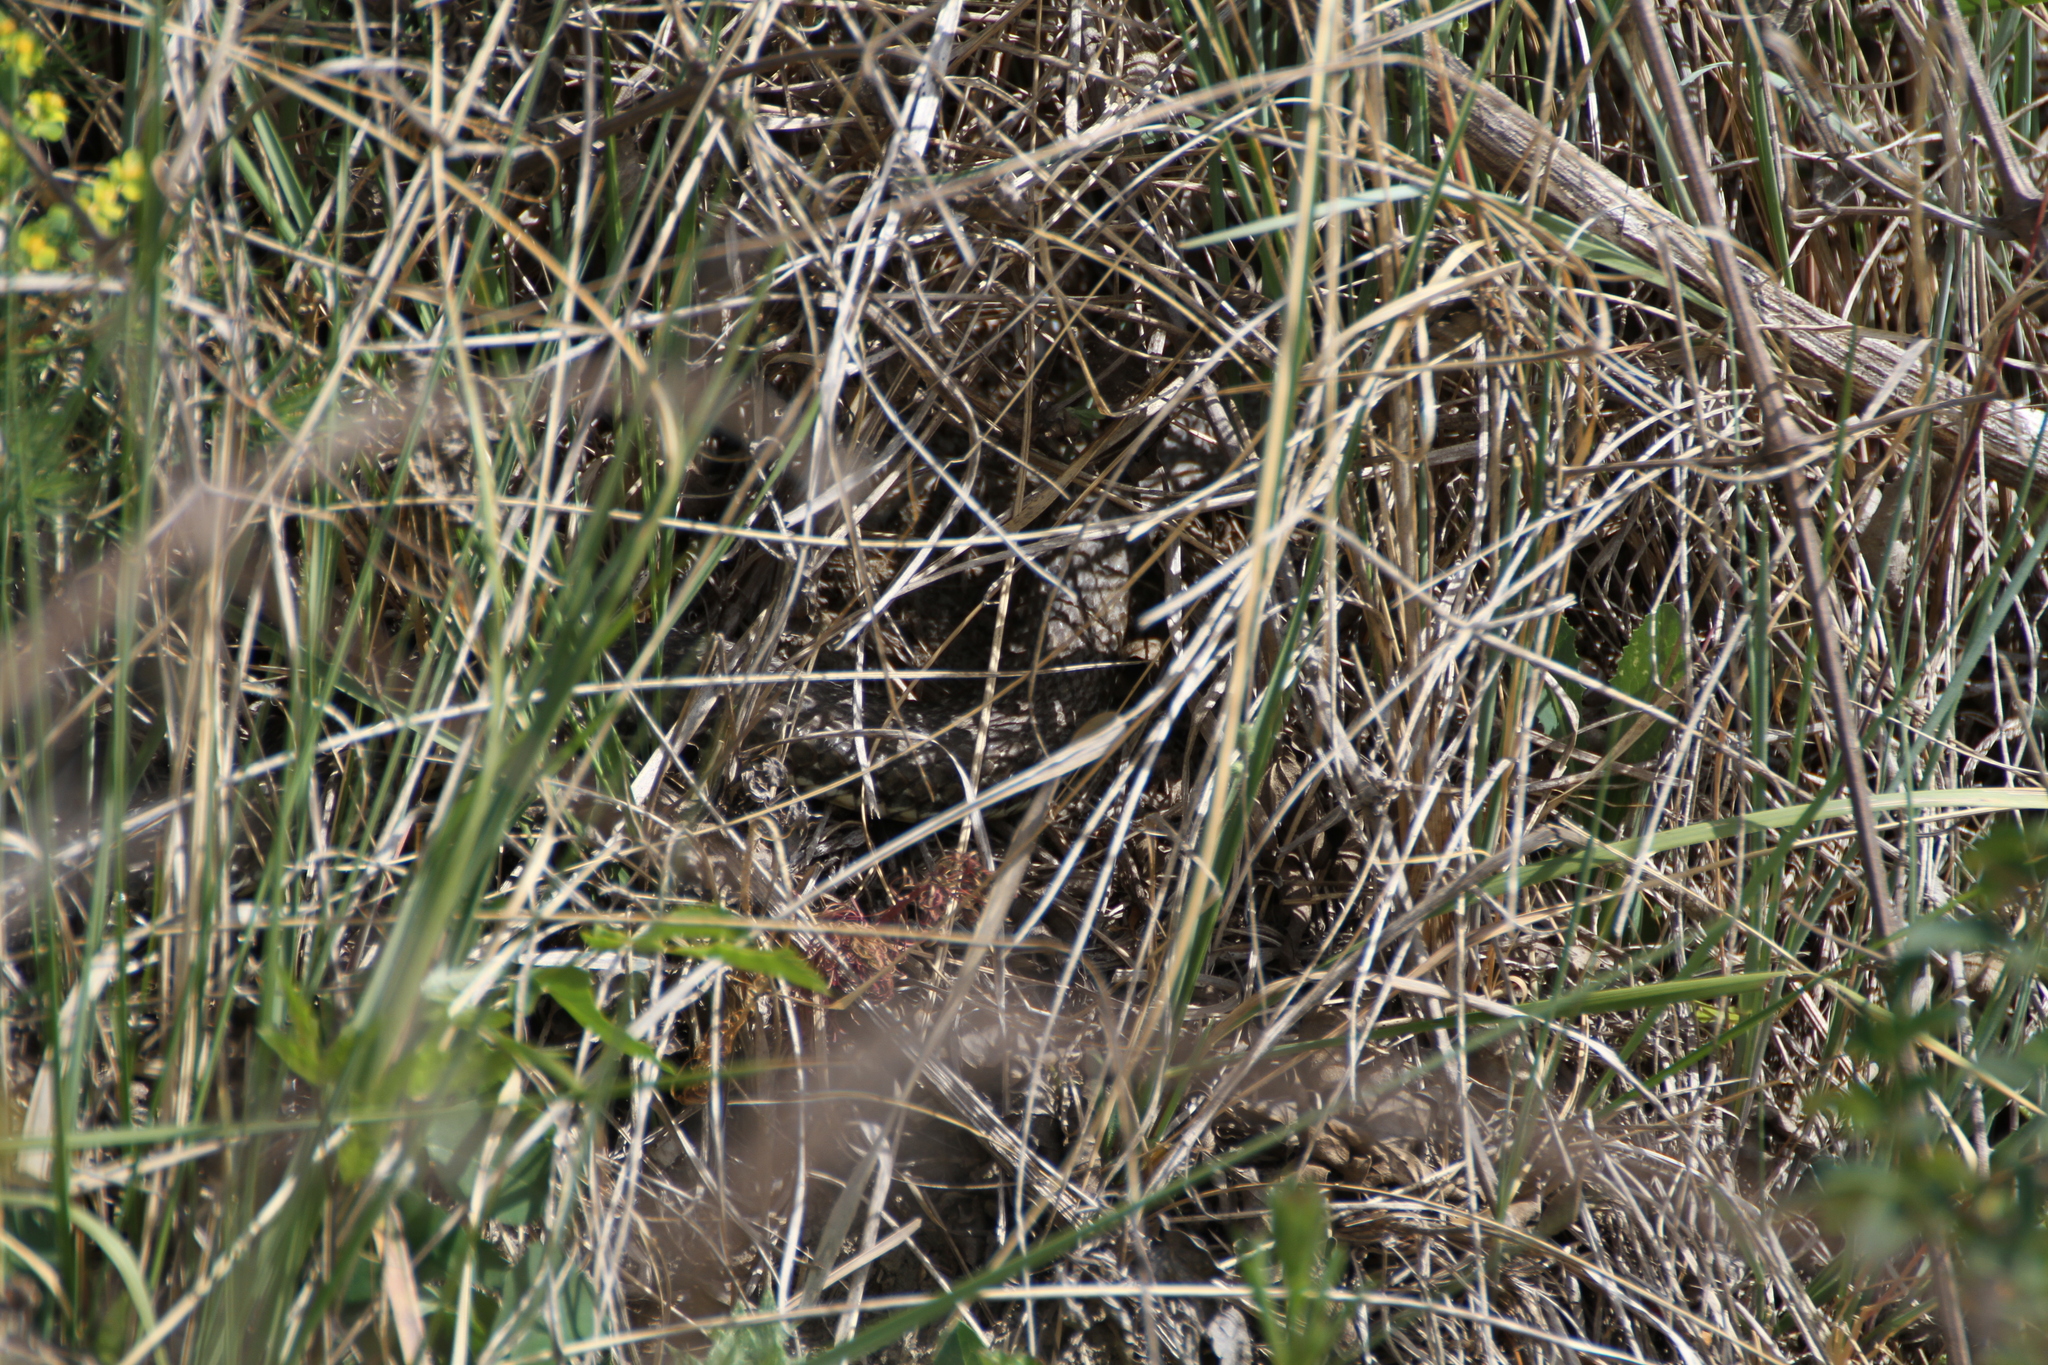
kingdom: Animalia
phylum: Chordata
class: Squamata
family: Psammophiidae
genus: Malpolon
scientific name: Malpolon monspessulanus
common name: Montpellier snake
